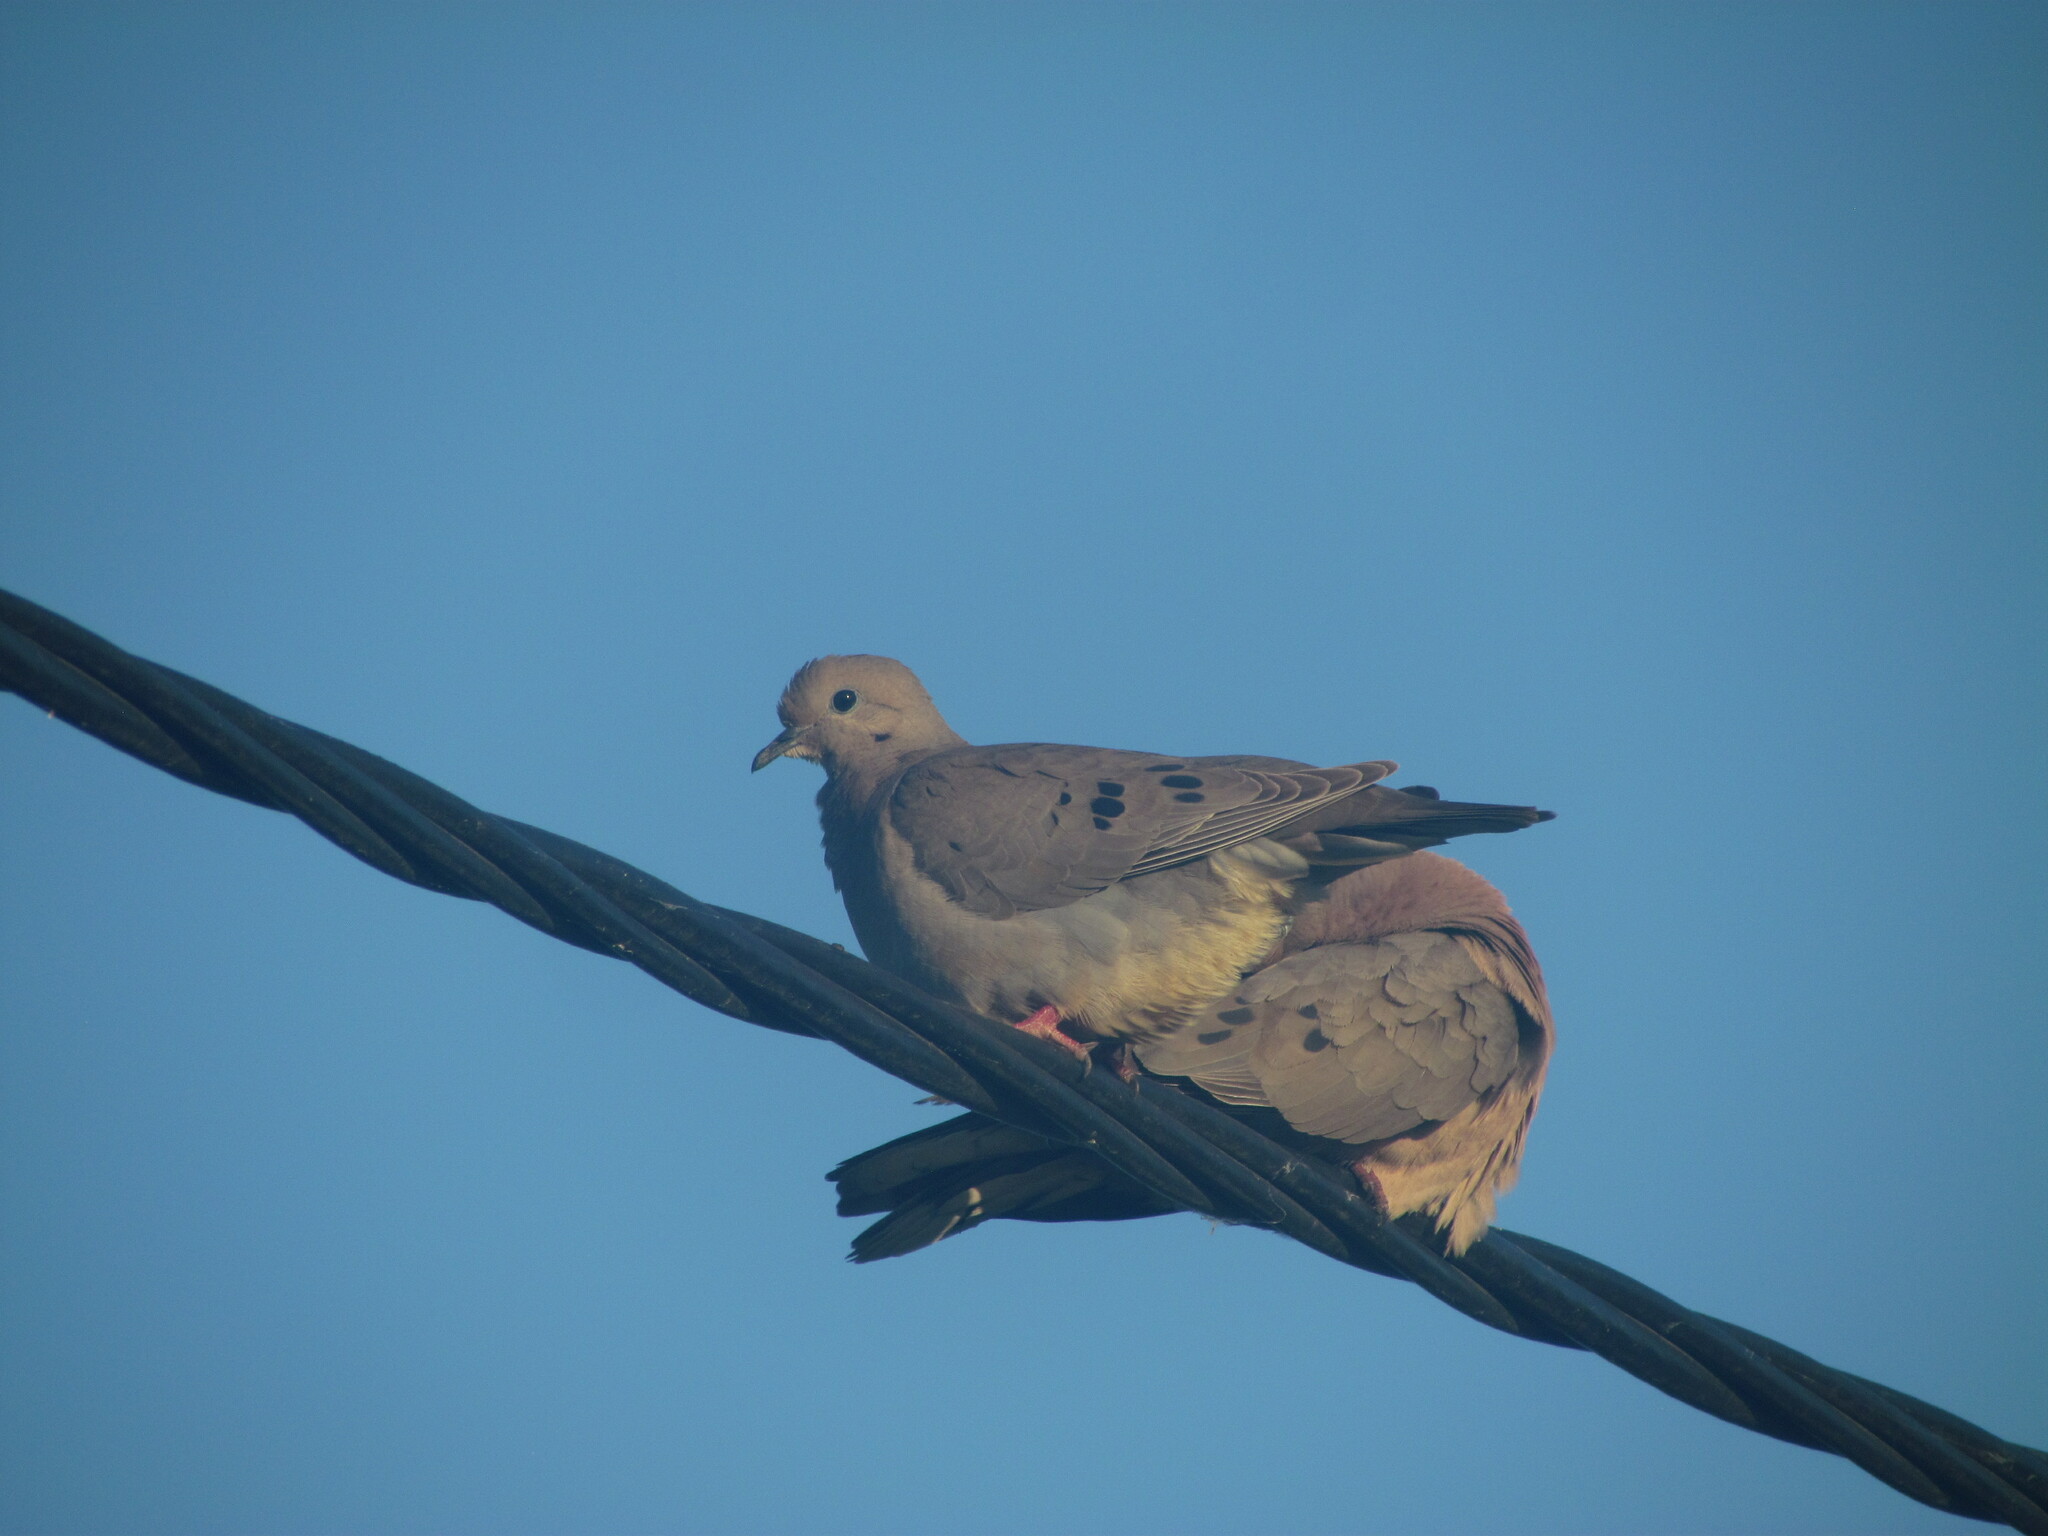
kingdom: Animalia
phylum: Chordata
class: Aves
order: Columbiformes
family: Columbidae
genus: Zenaida
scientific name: Zenaida auriculata
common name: Eared dove
